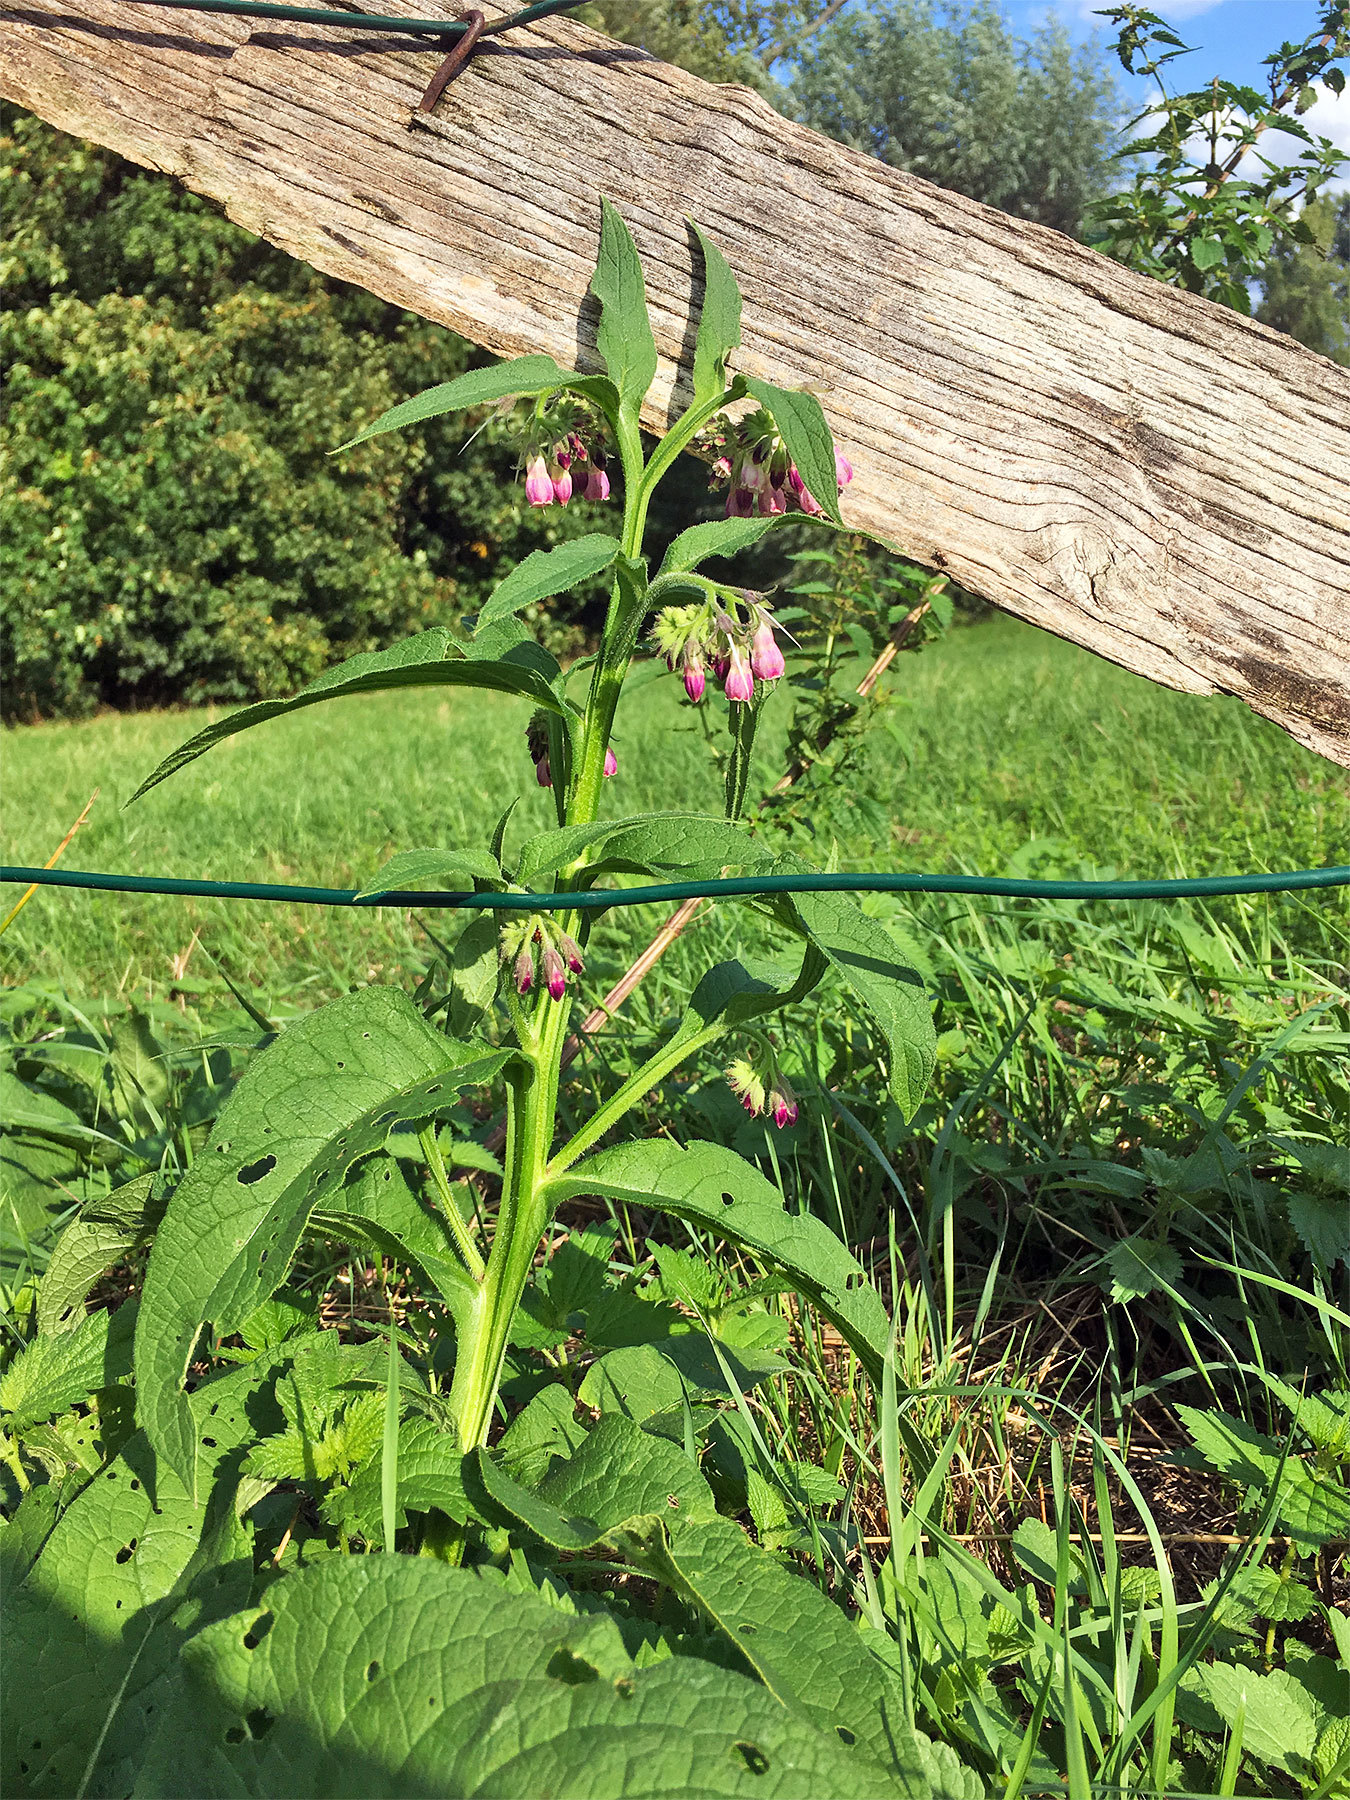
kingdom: Plantae
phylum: Tracheophyta
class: Magnoliopsida
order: Boraginales
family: Boraginaceae
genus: Symphytum
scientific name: Symphytum officinale
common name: Common comfrey
